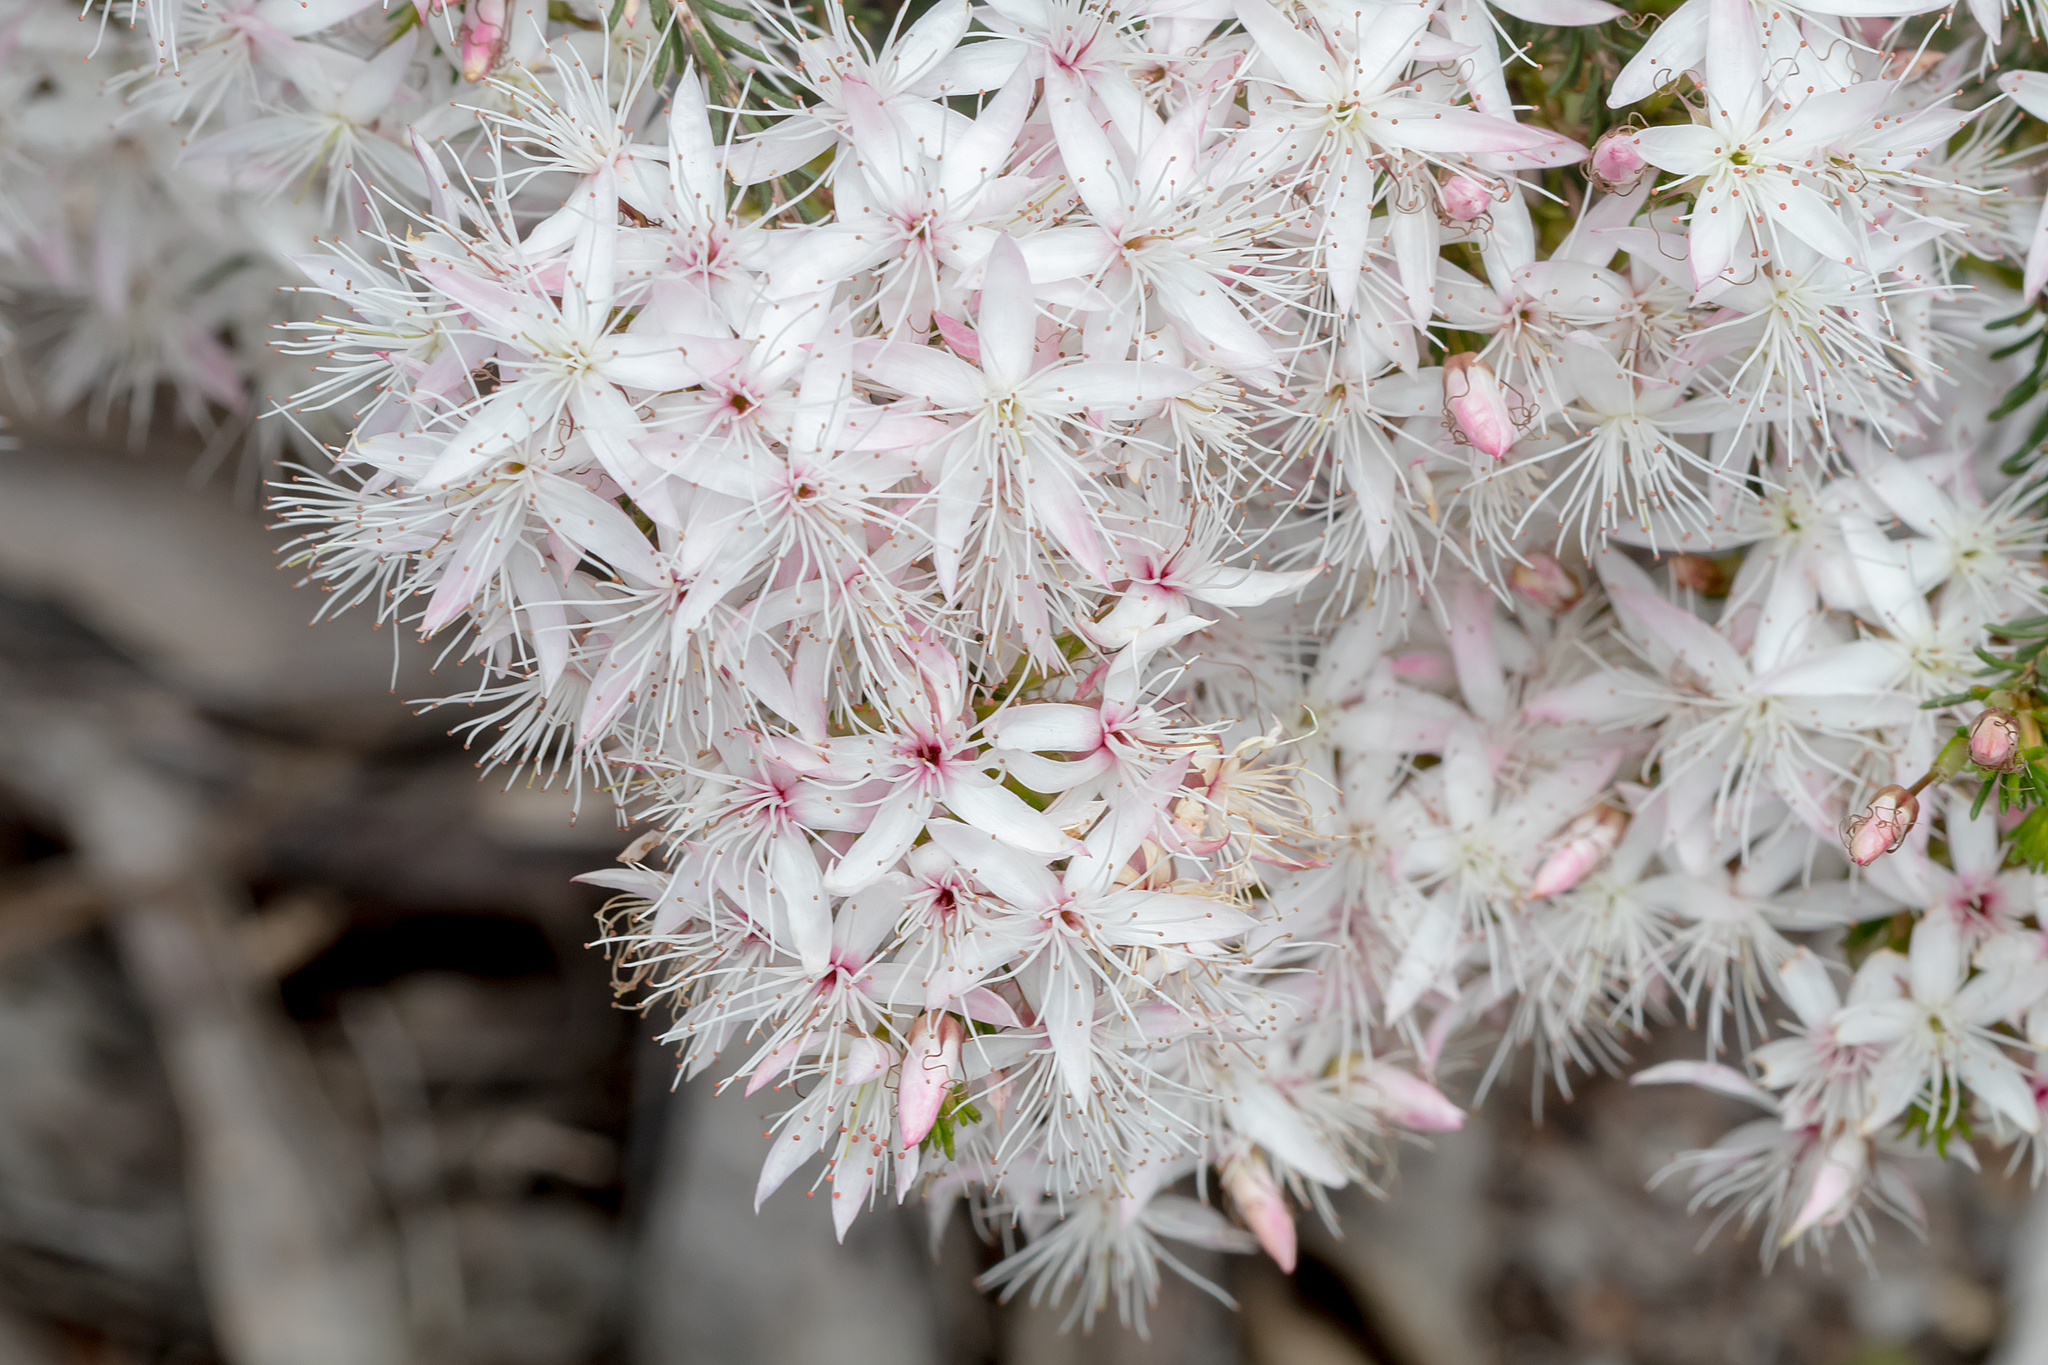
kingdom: Plantae
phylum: Tracheophyta
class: Magnoliopsida
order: Myrtales
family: Myrtaceae
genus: Calytrix
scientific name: Calytrix tetragona
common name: Common fringe myrtle
